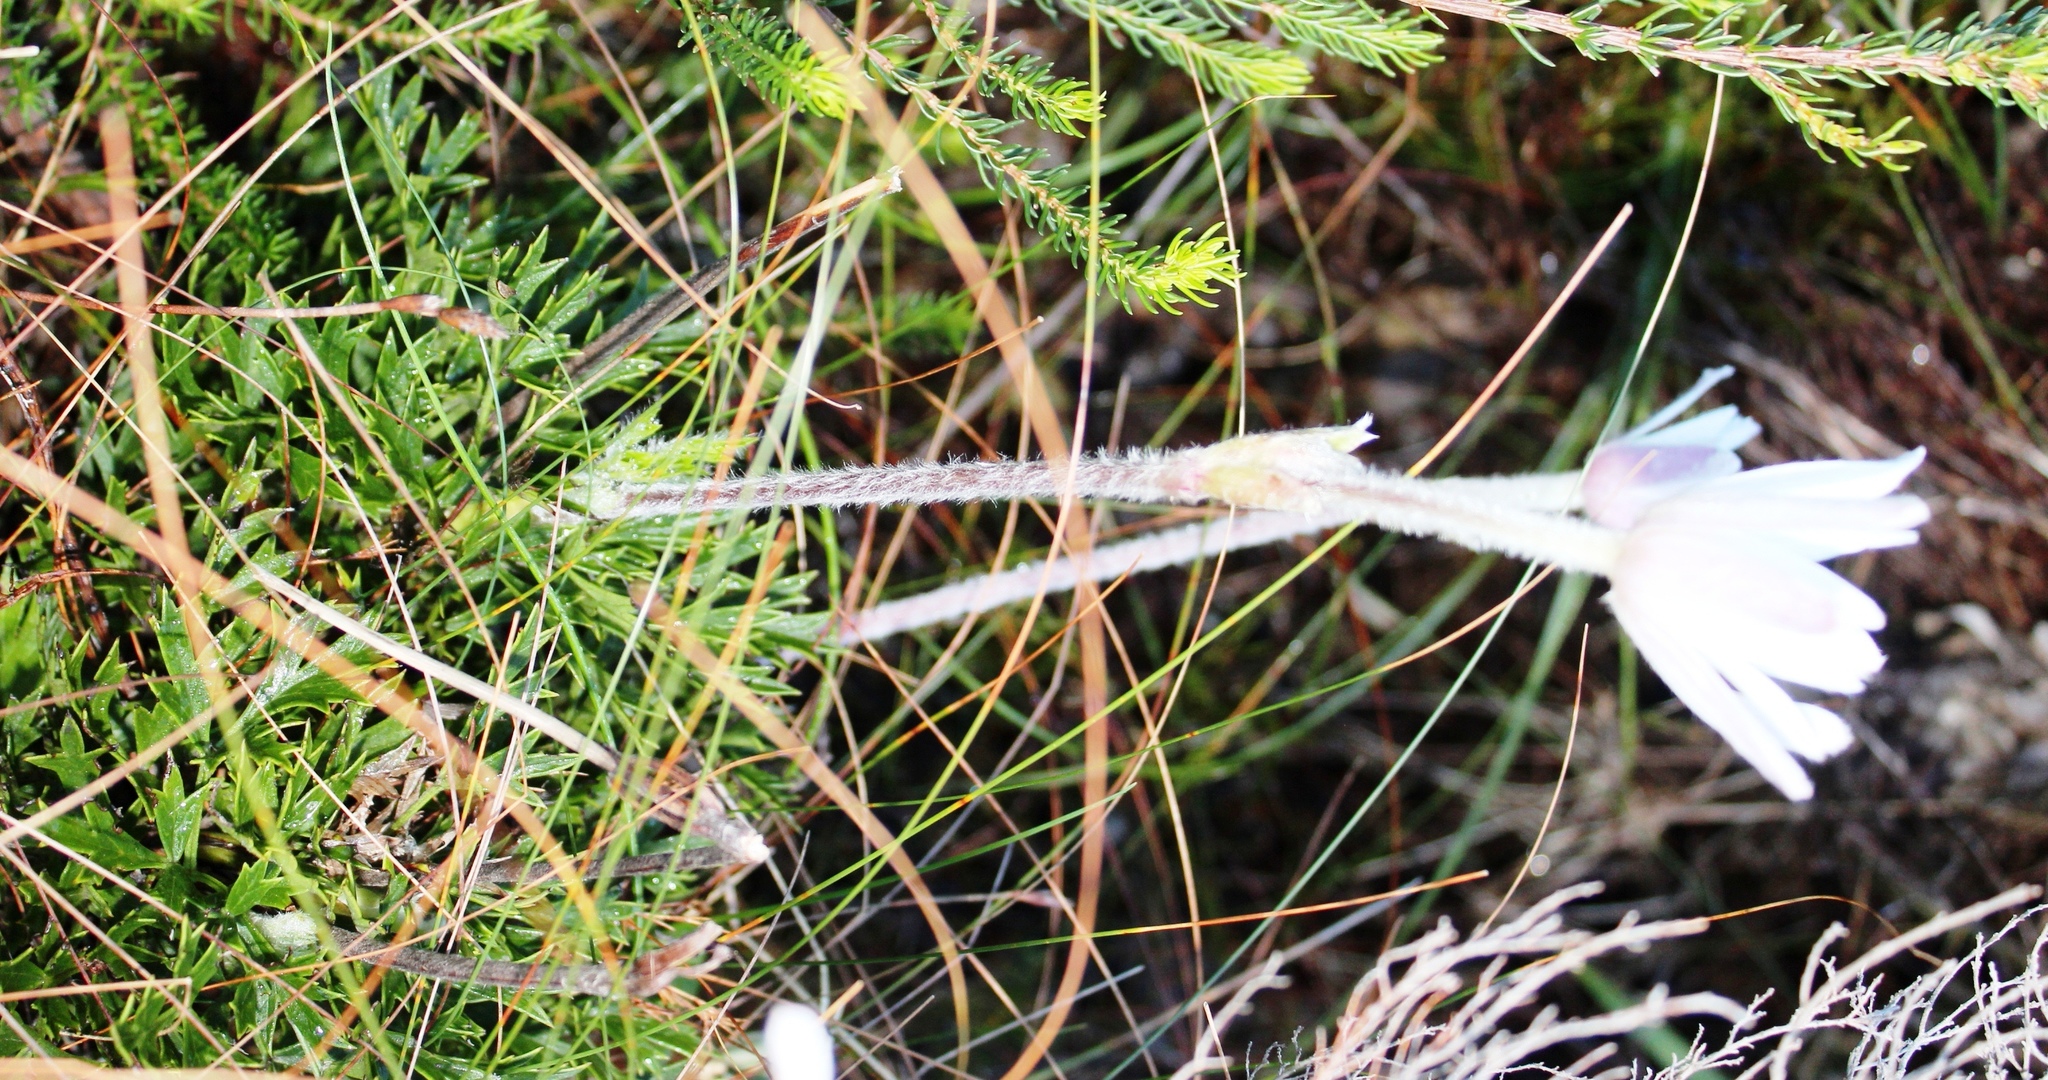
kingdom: Plantae
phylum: Tracheophyta
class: Magnoliopsida
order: Ranunculales
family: Ranunculaceae
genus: Knowltonia
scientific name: Knowltonia tenuifolia
